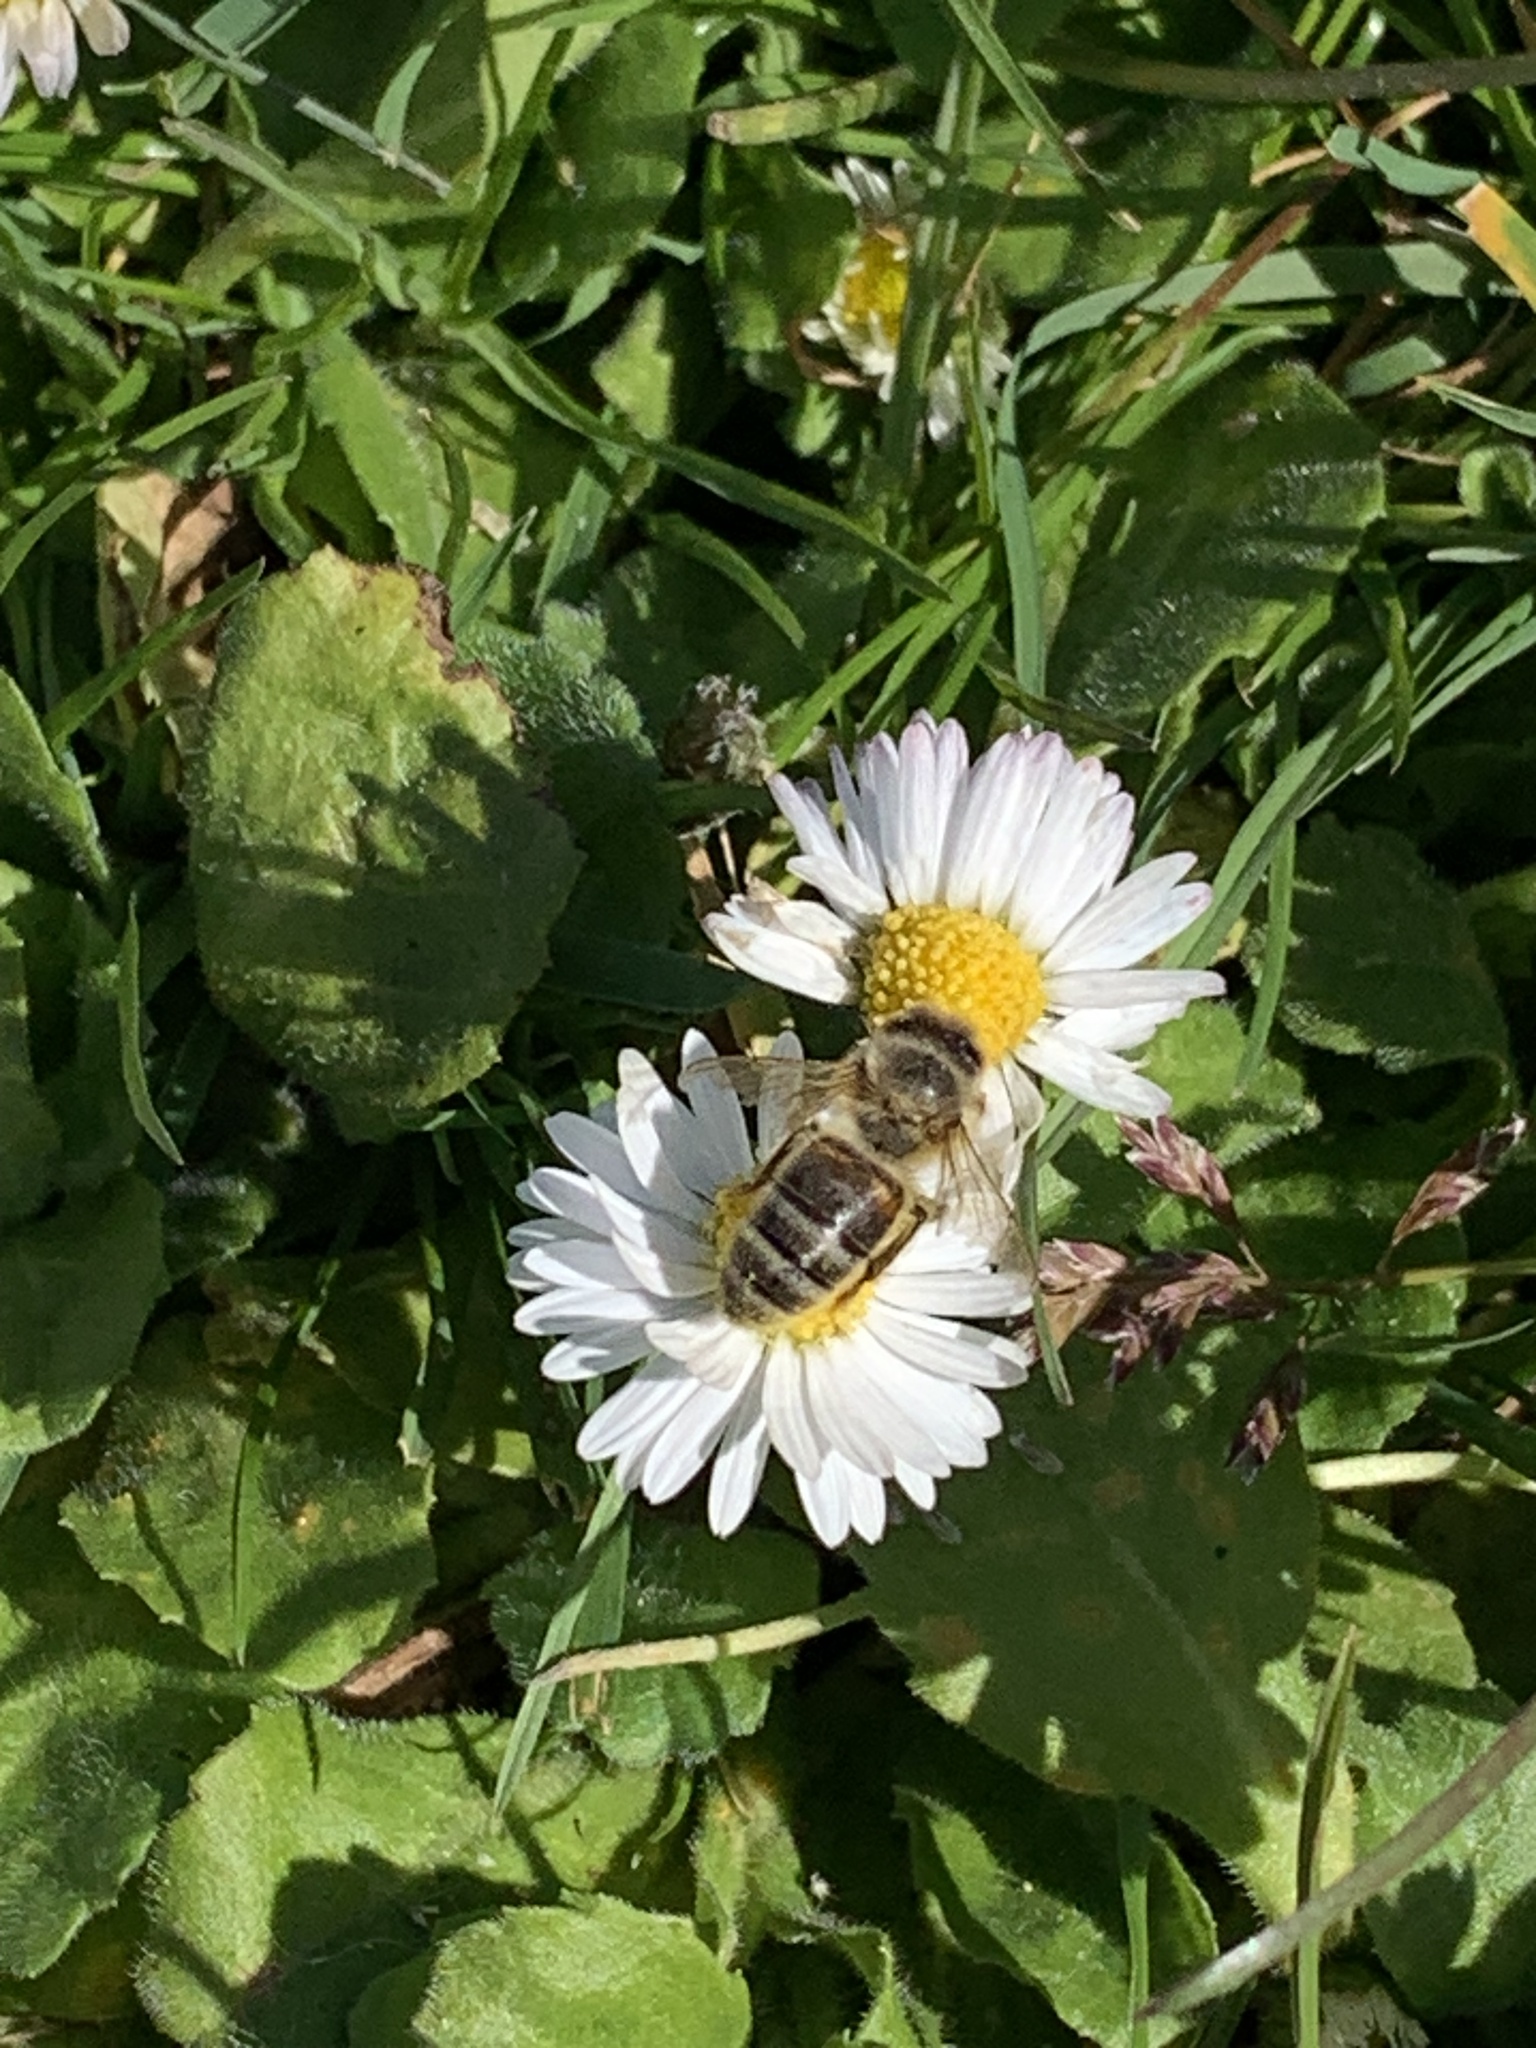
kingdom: Animalia
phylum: Arthropoda
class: Insecta
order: Hymenoptera
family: Apidae
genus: Apis
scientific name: Apis mellifera
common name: Honey bee
